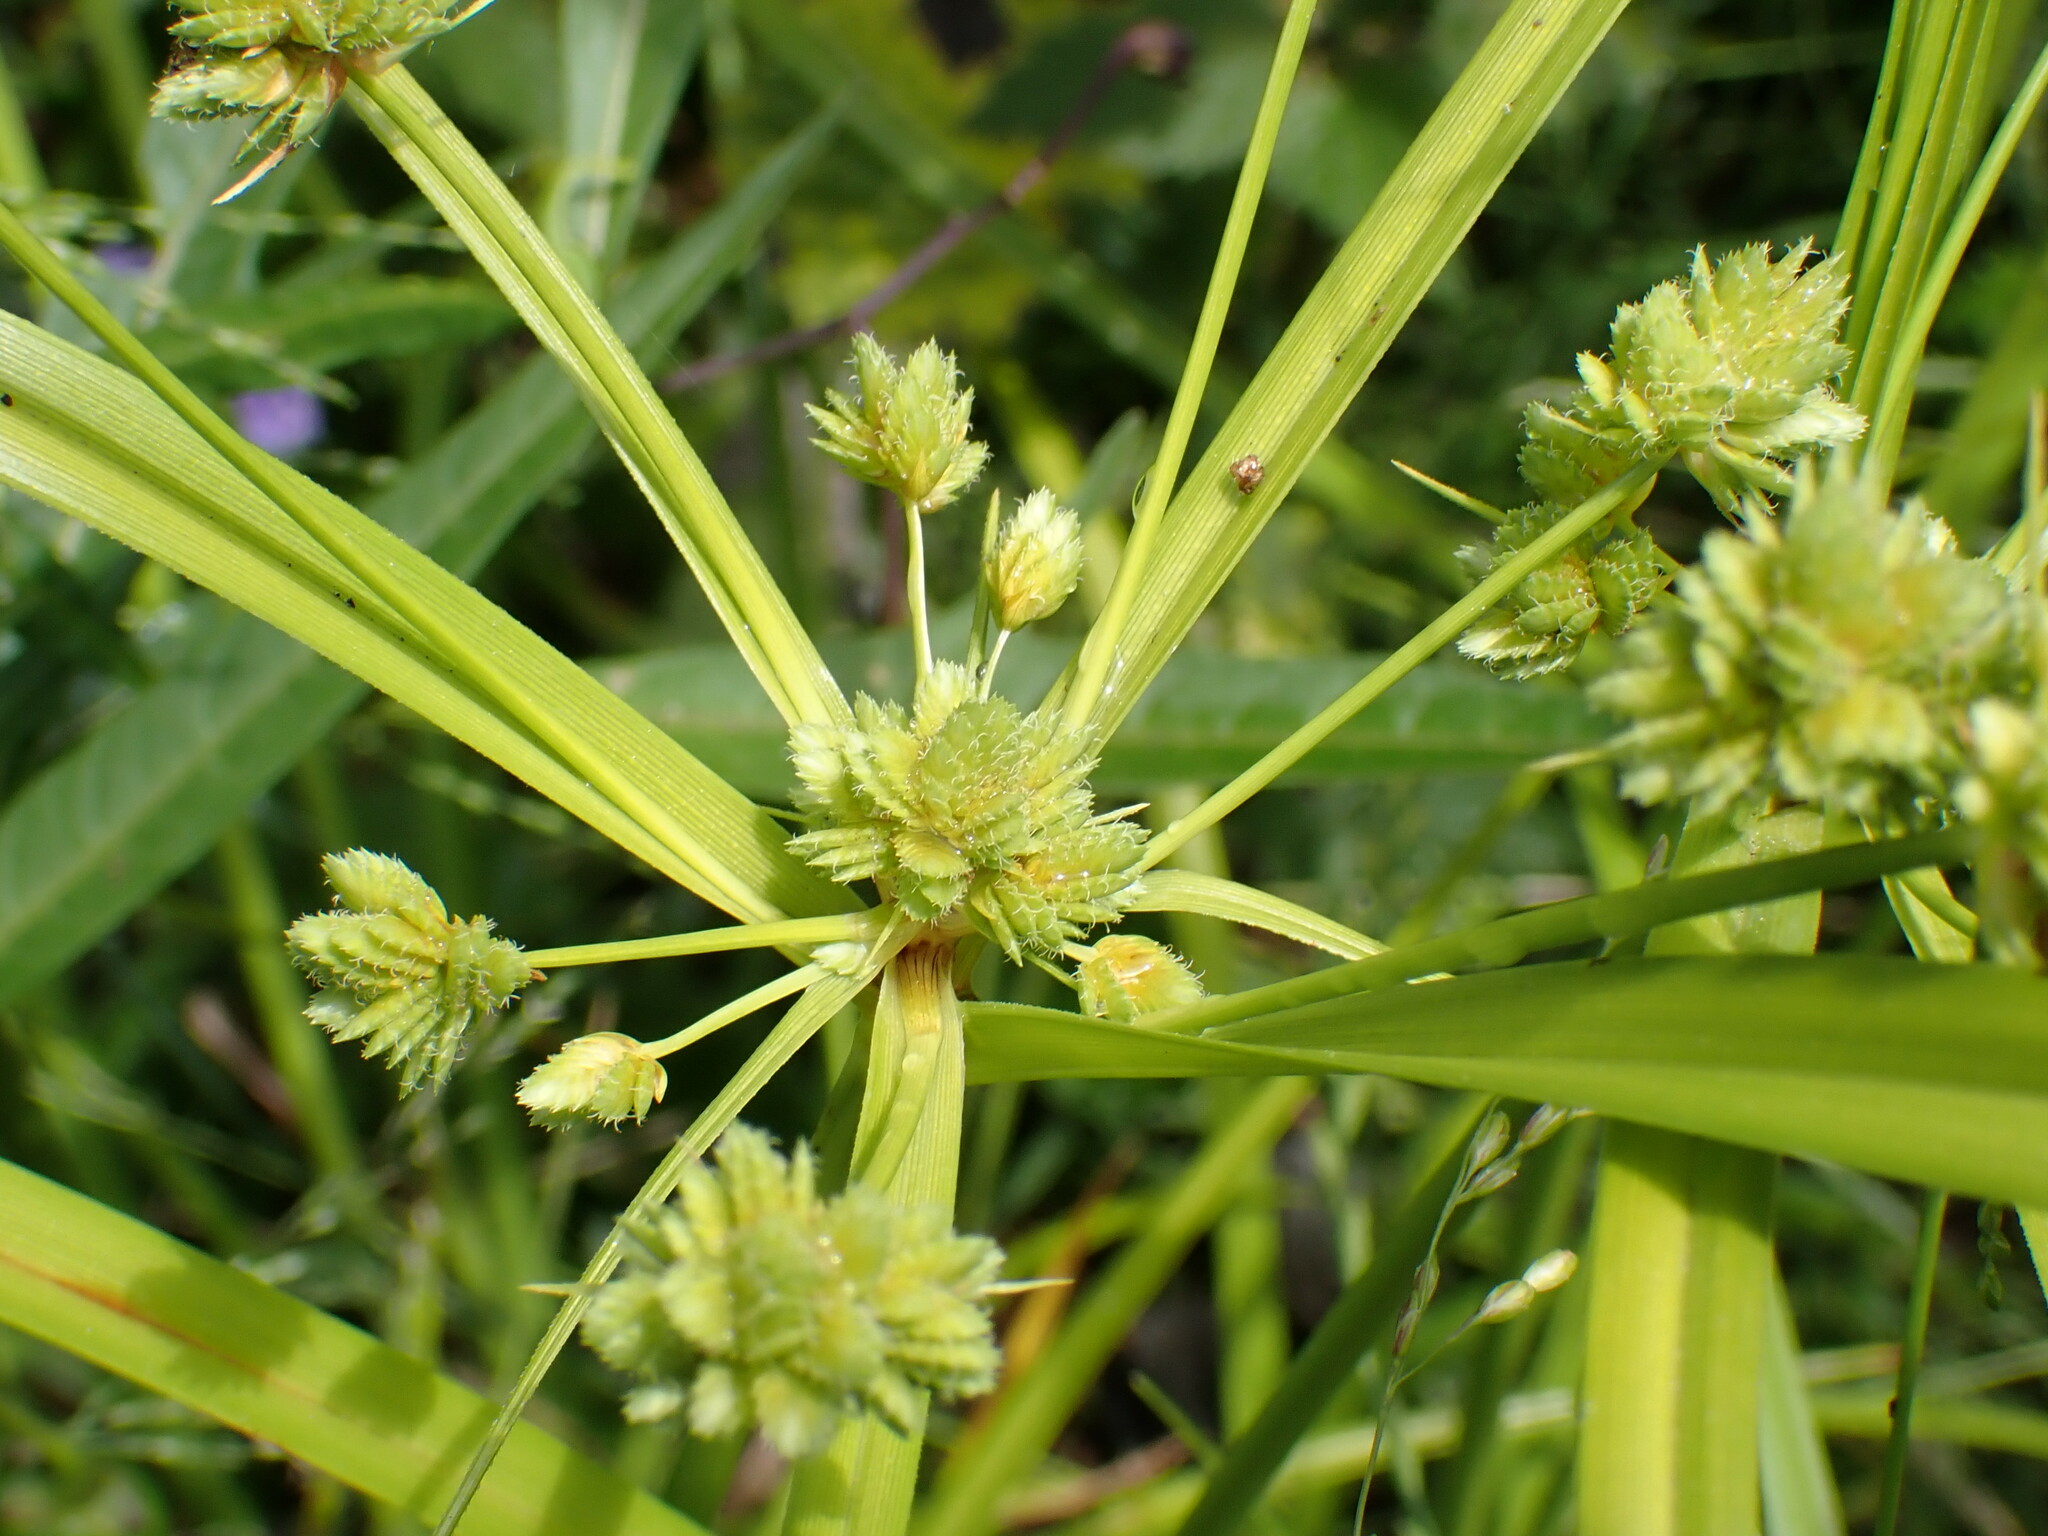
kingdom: Plantae
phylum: Tracheophyta
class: Liliopsida
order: Poales
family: Cyperaceae
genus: Cyperus
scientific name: Cyperus eragrostis
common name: Tall flatsedge
